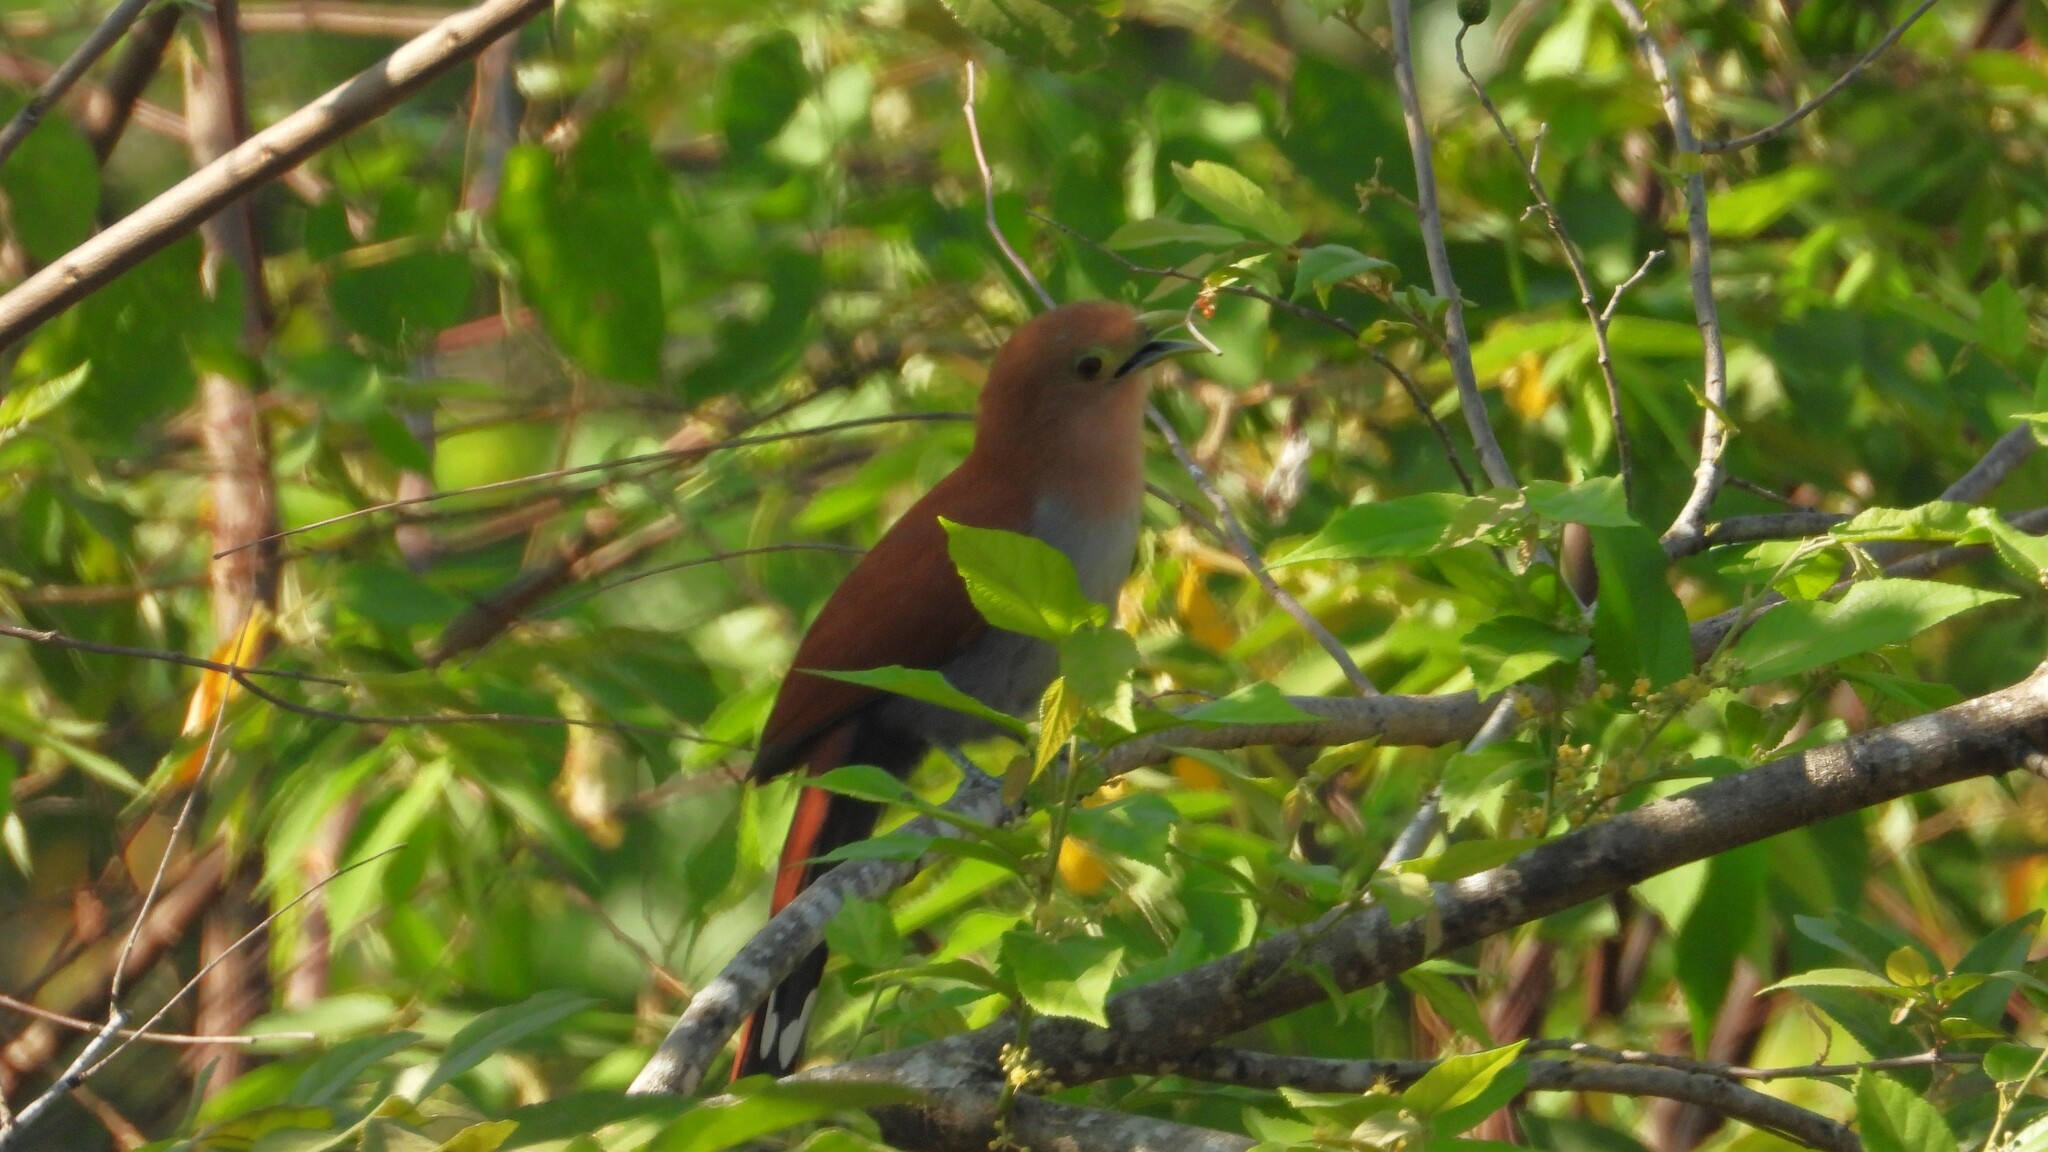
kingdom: Animalia
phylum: Chordata
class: Aves
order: Cuculiformes
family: Cuculidae
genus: Piaya
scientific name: Piaya cayana
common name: Squirrel cuckoo
